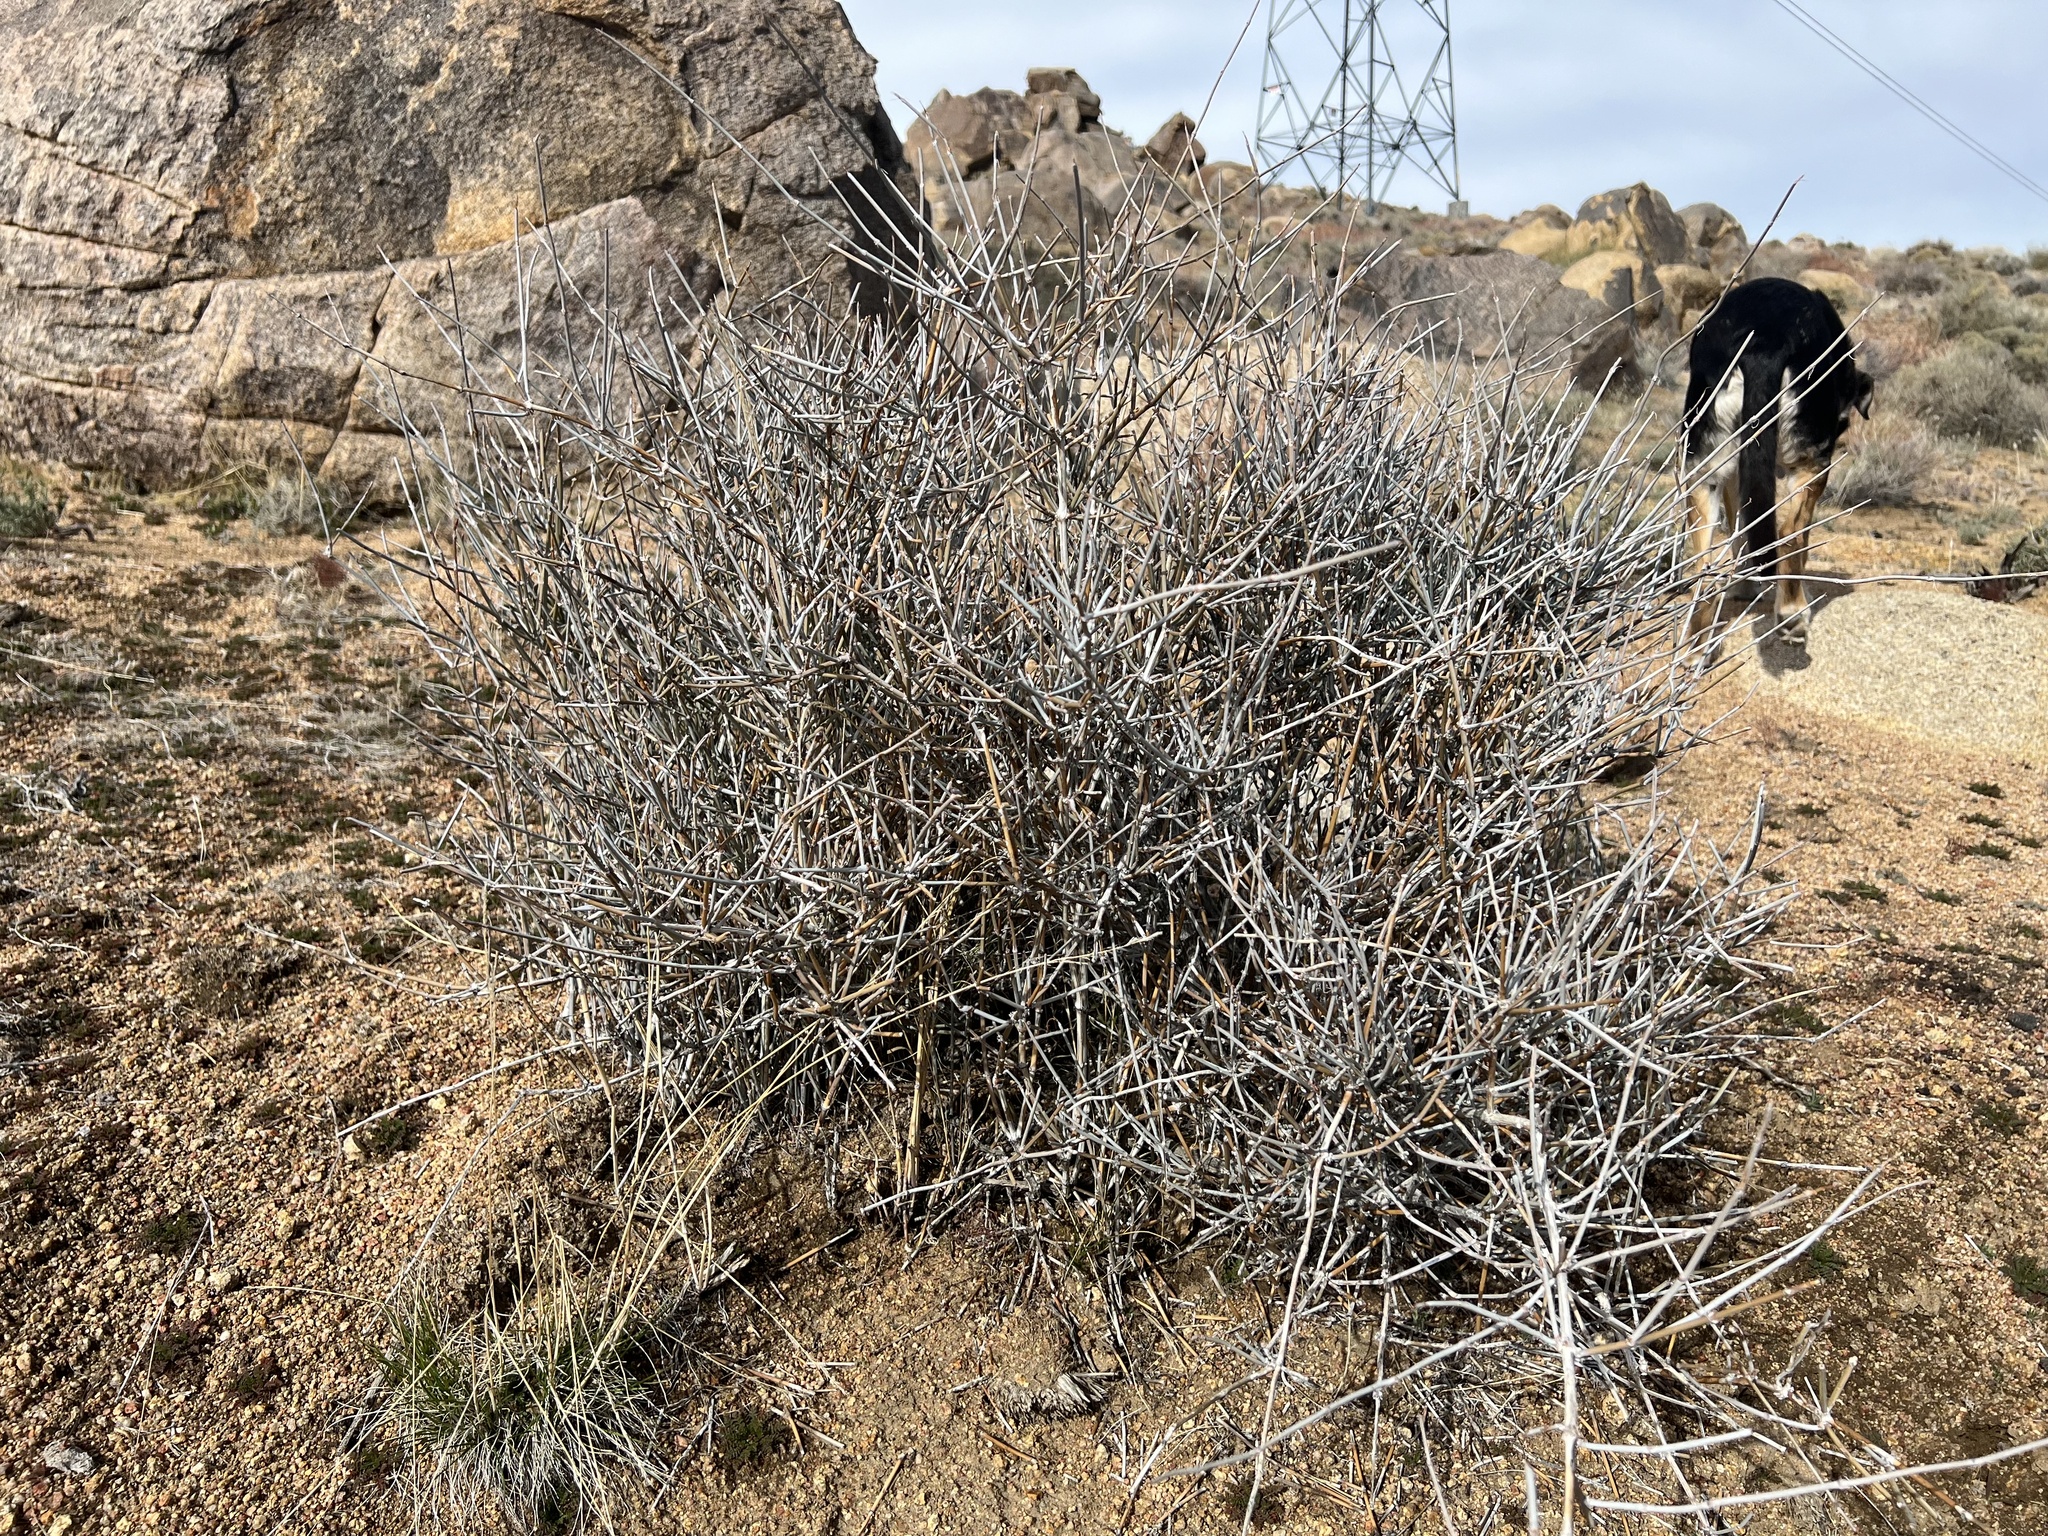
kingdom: Plantae
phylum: Tracheophyta
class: Gnetopsida
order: Ephedrales
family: Ephedraceae
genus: Ephedra
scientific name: Ephedra nevadensis
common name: Gray ephedra
